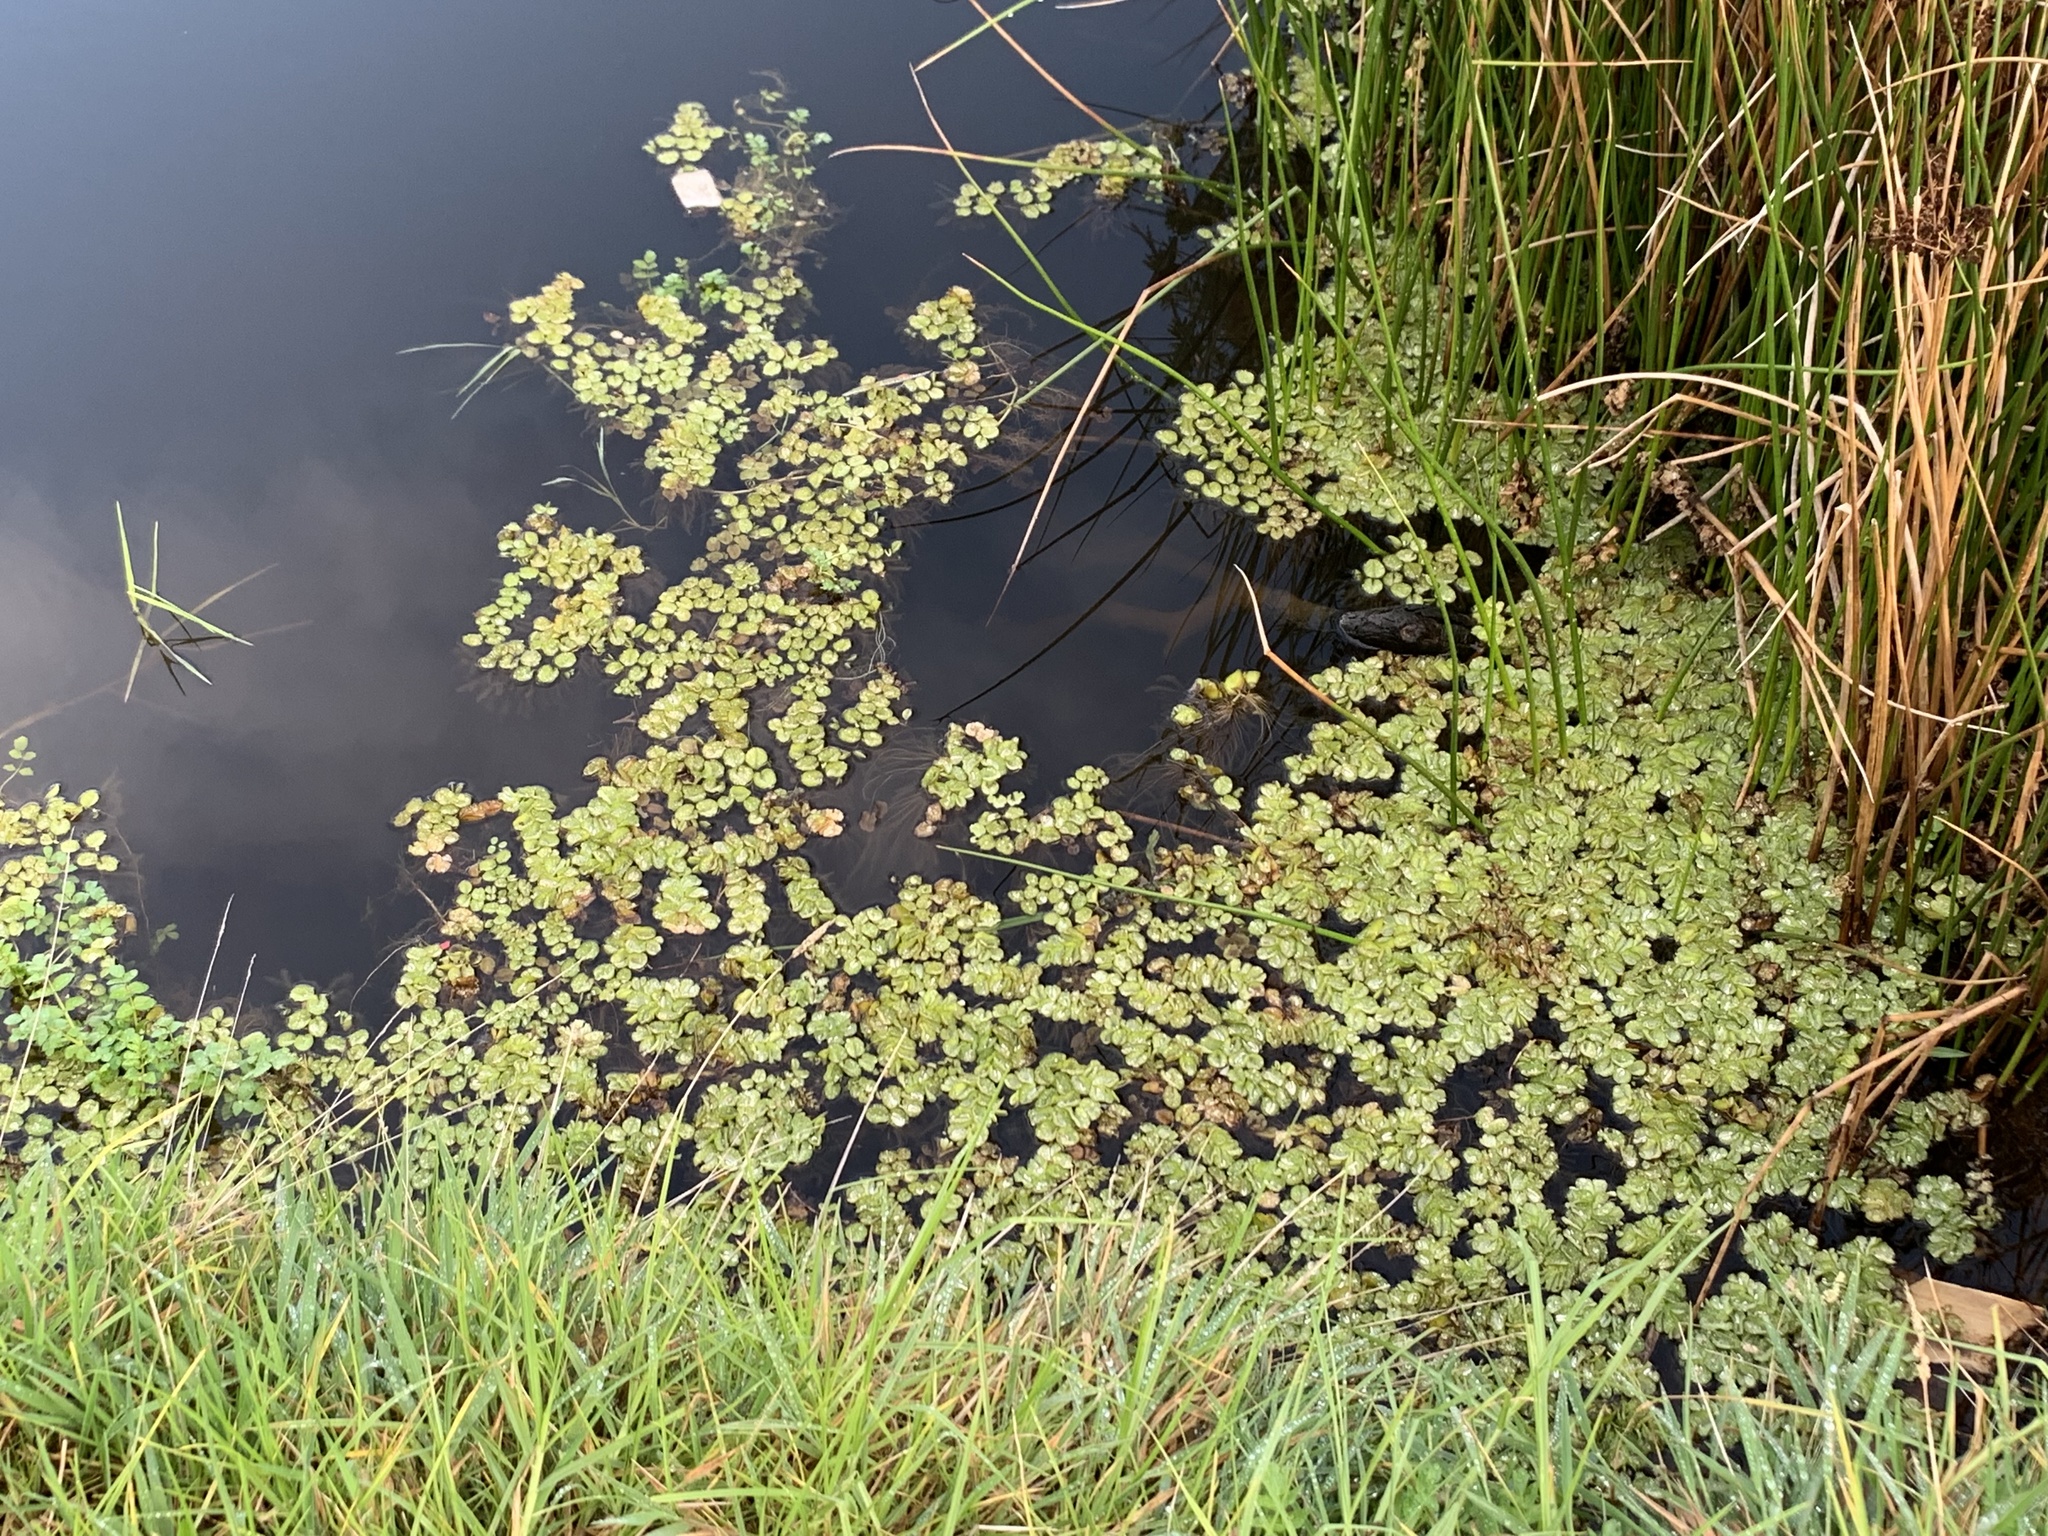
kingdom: Plantae
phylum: Tracheophyta
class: Polypodiopsida
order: Salviniales
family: Salviniaceae
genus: Salvinia
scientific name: Salvinia molesta
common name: Kariba weed
